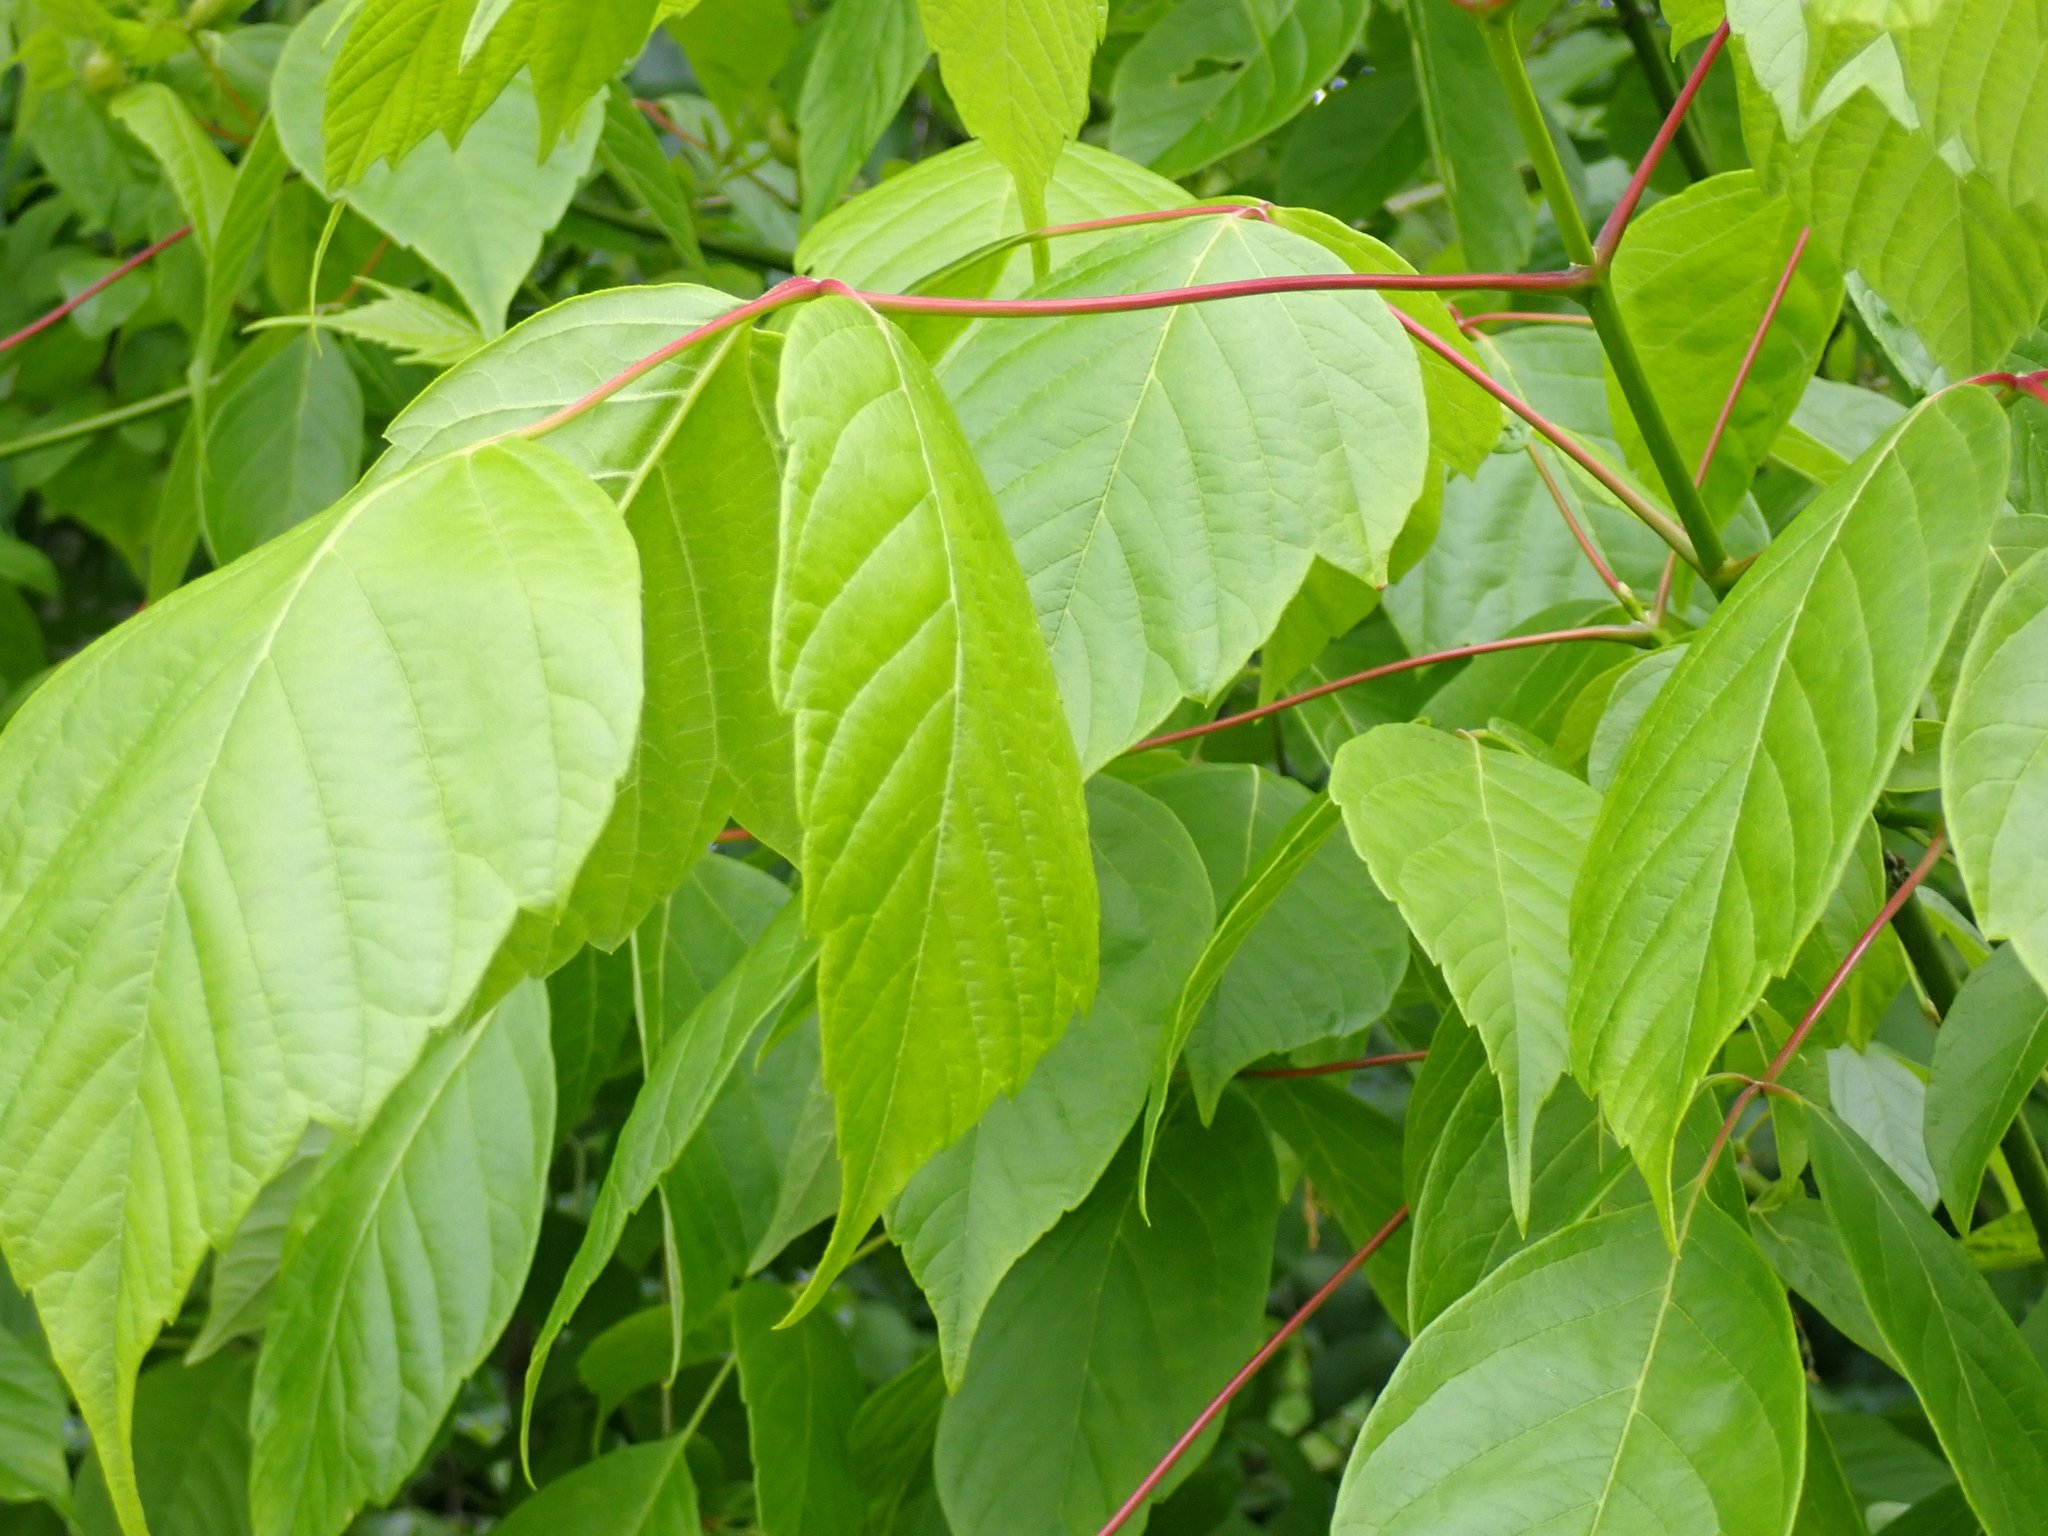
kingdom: Plantae
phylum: Tracheophyta
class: Magnoliopsida
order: Sapindales
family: Sapindaceae
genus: Acer
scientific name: Acer negundo
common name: Ashleaf maple
